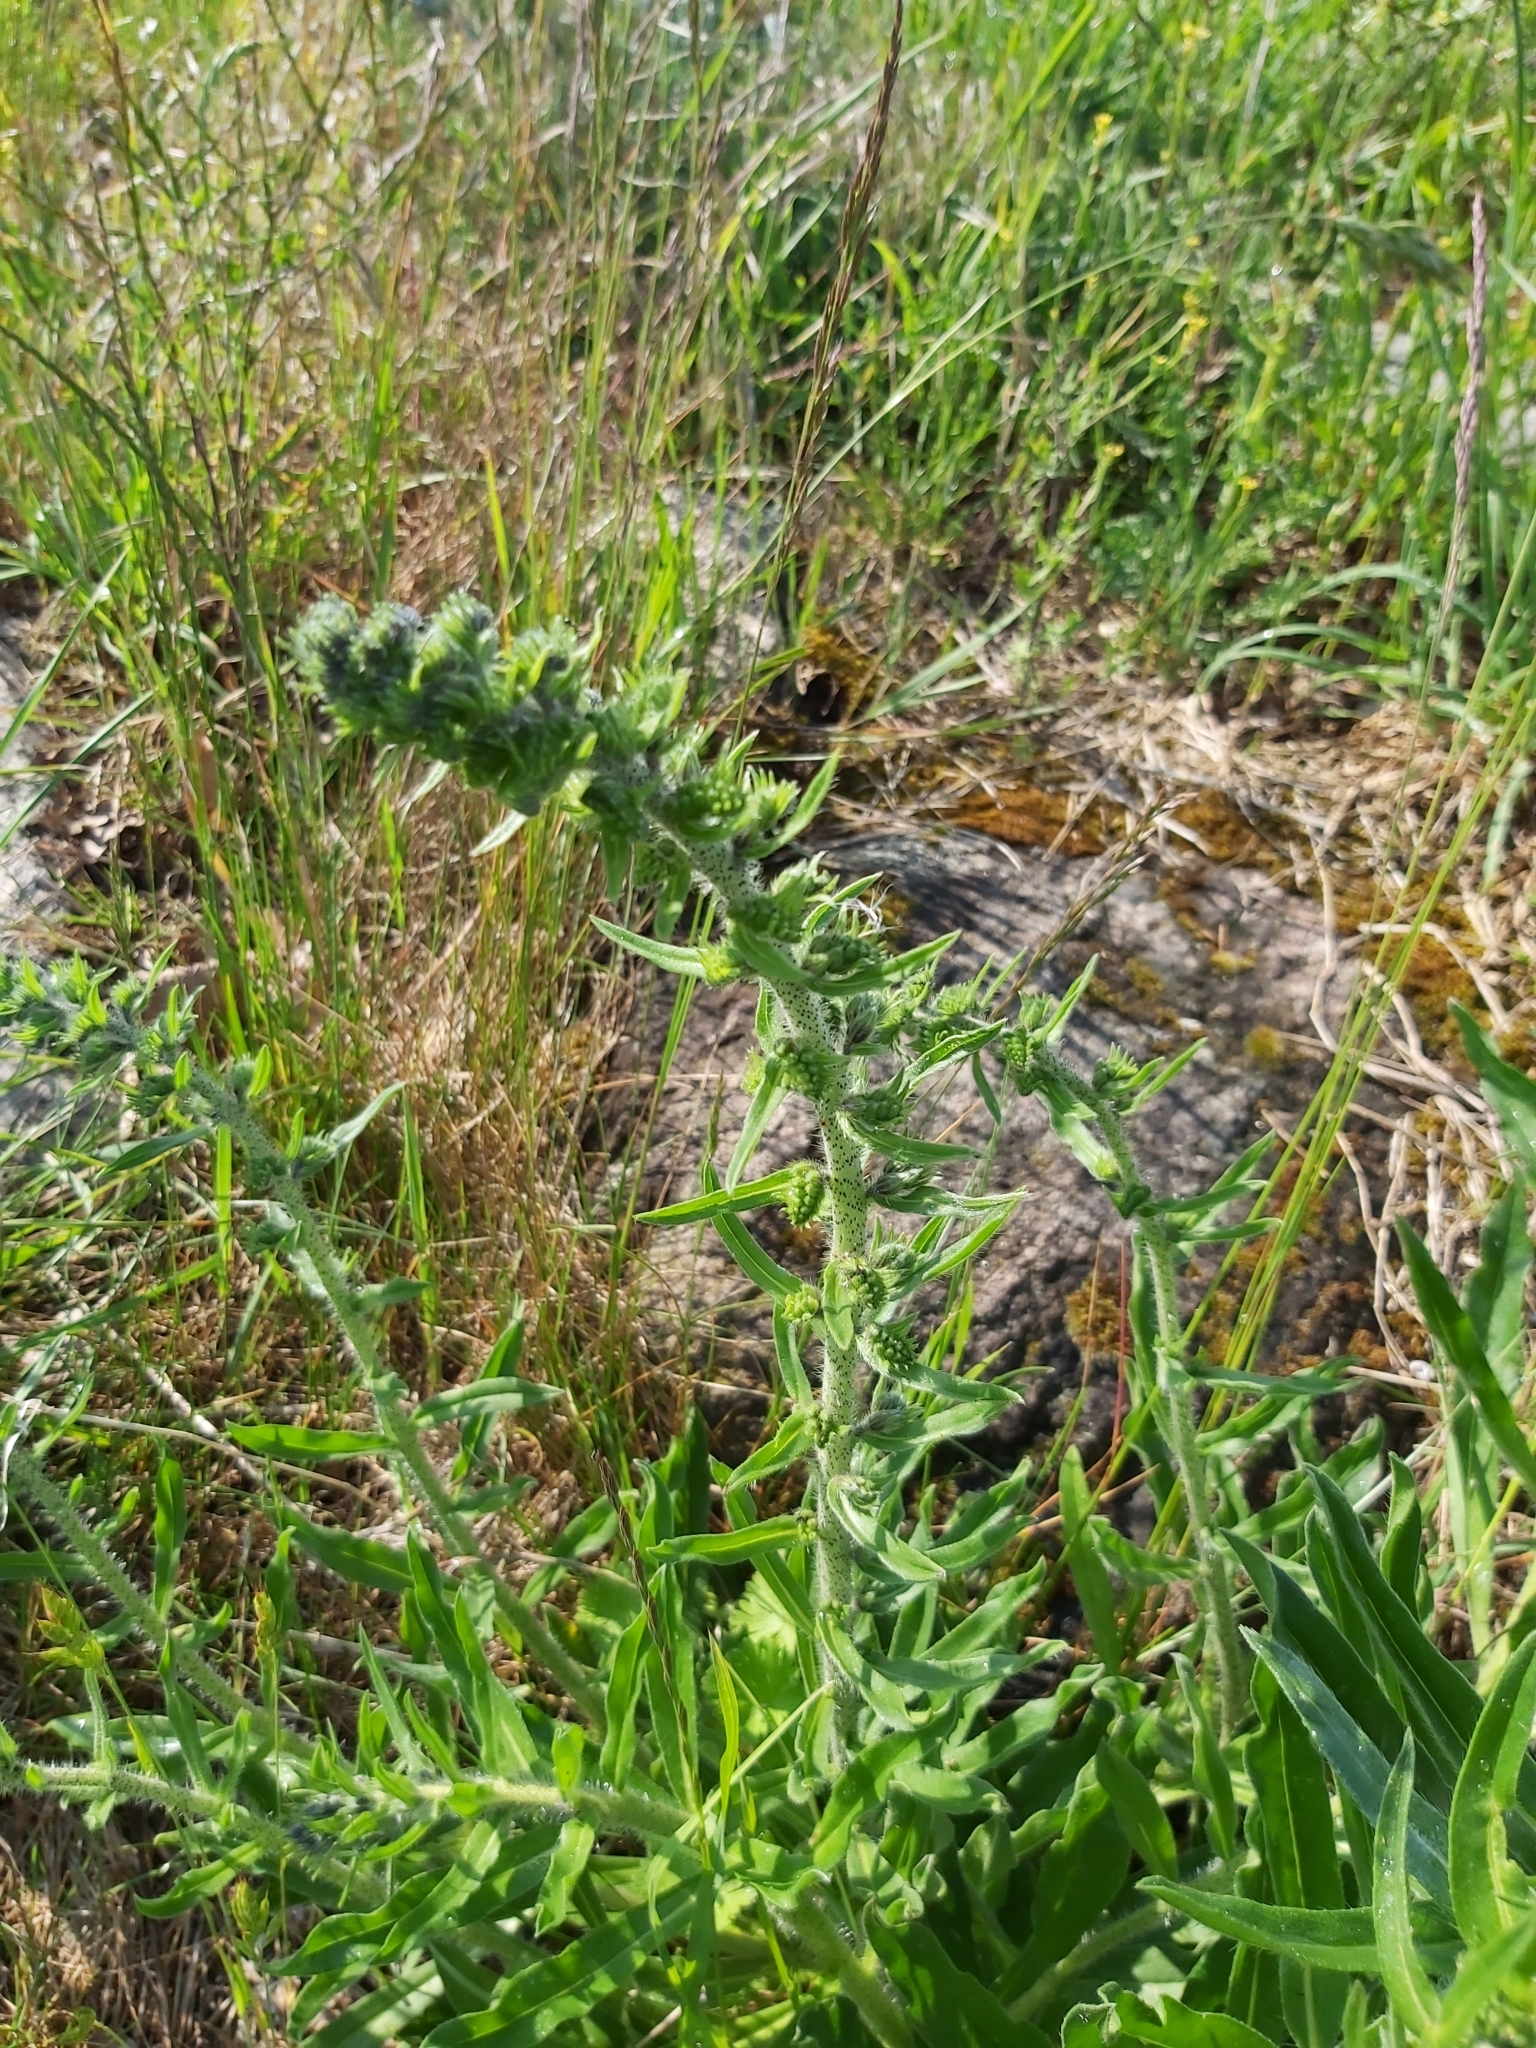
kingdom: Plantae
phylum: Tracheophyta
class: Magnoliopsida
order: Boraginales
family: Boraginaceae
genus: Echium
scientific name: Echium vulgare
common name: Common viper's bugloss
